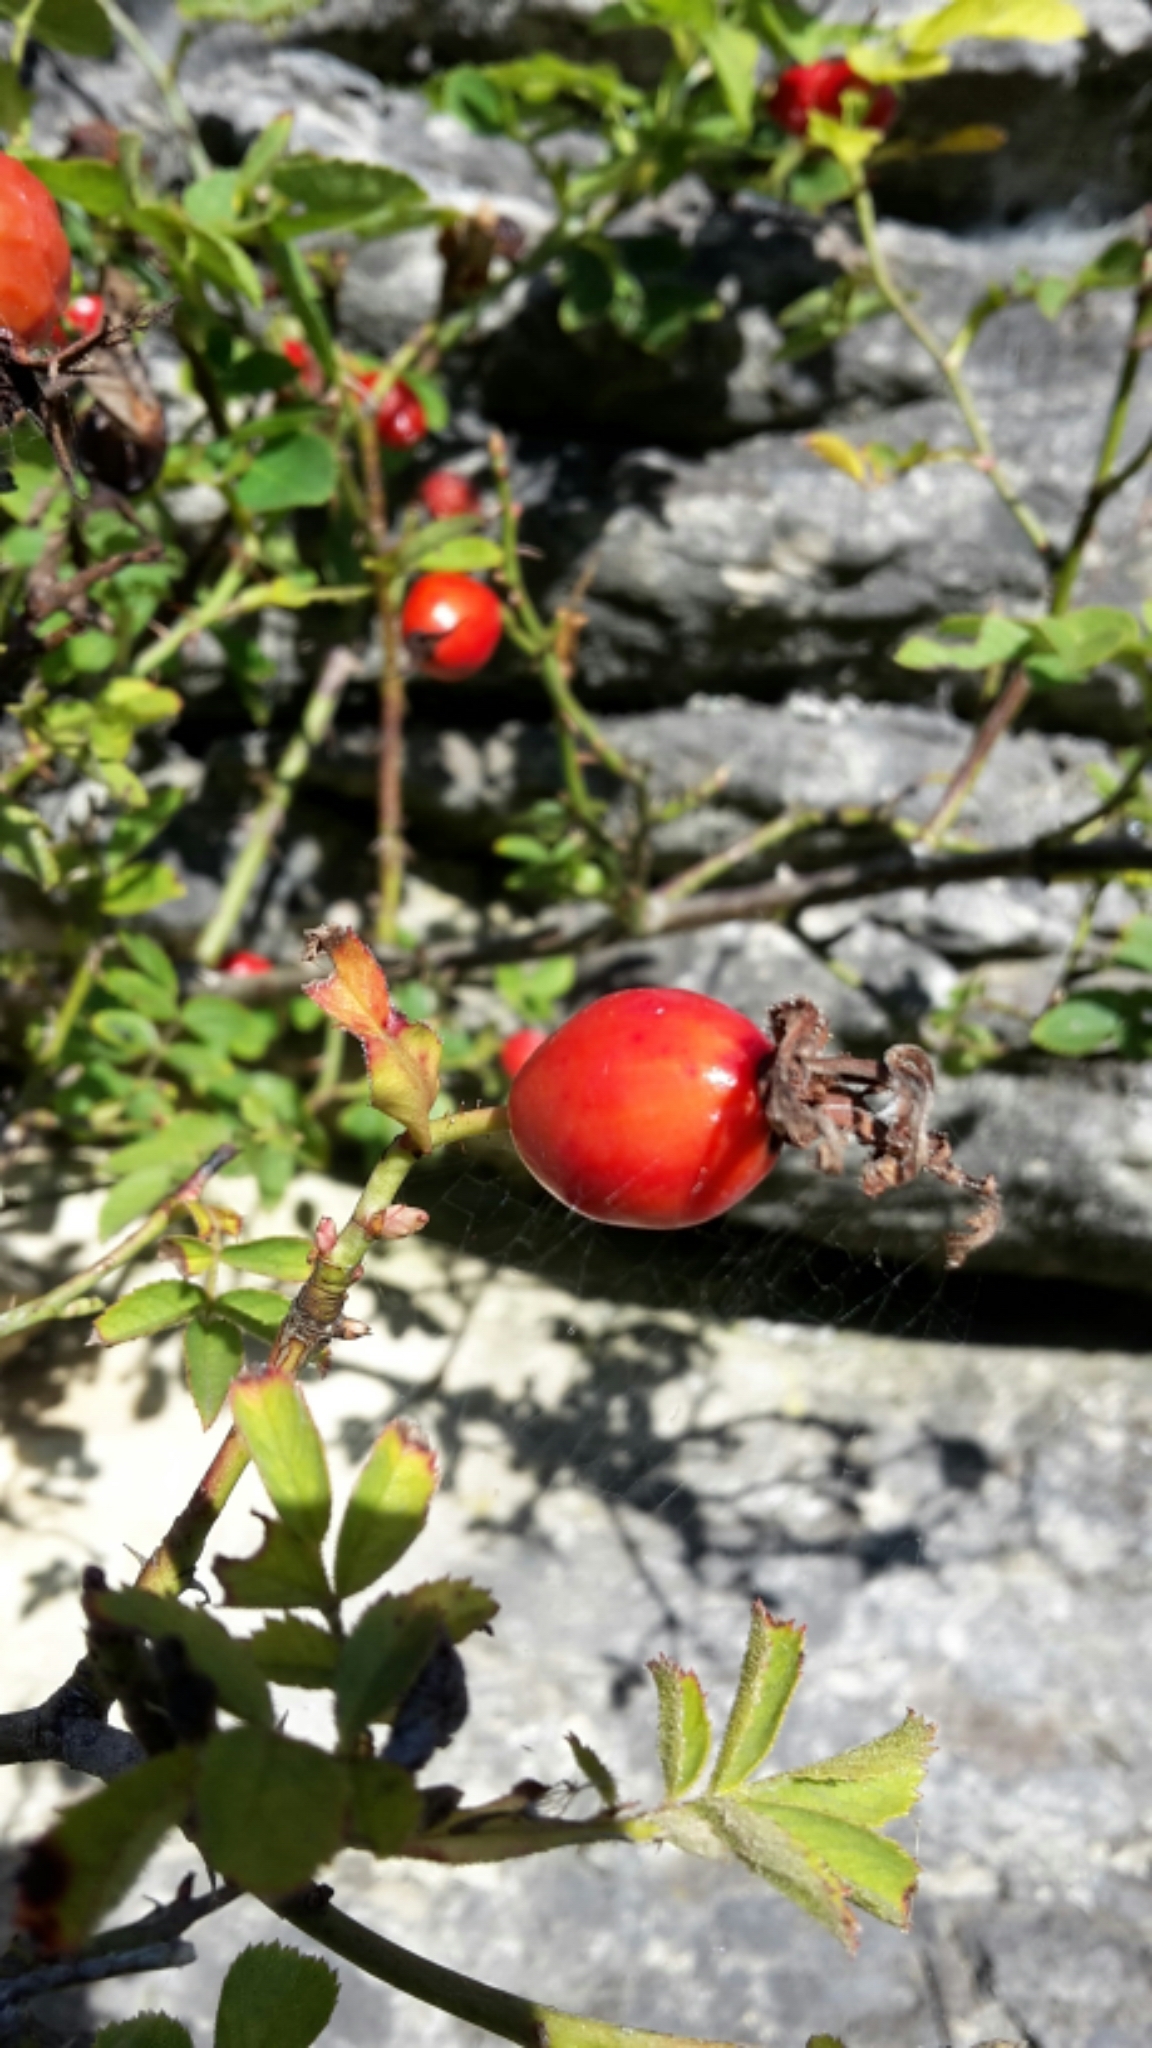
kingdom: Plantae
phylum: Tracheophyta
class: Magnoliopsida
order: Rosales
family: Rosaceae
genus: Rosa
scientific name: Rosa rubiginosa
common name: Sweet-briar
